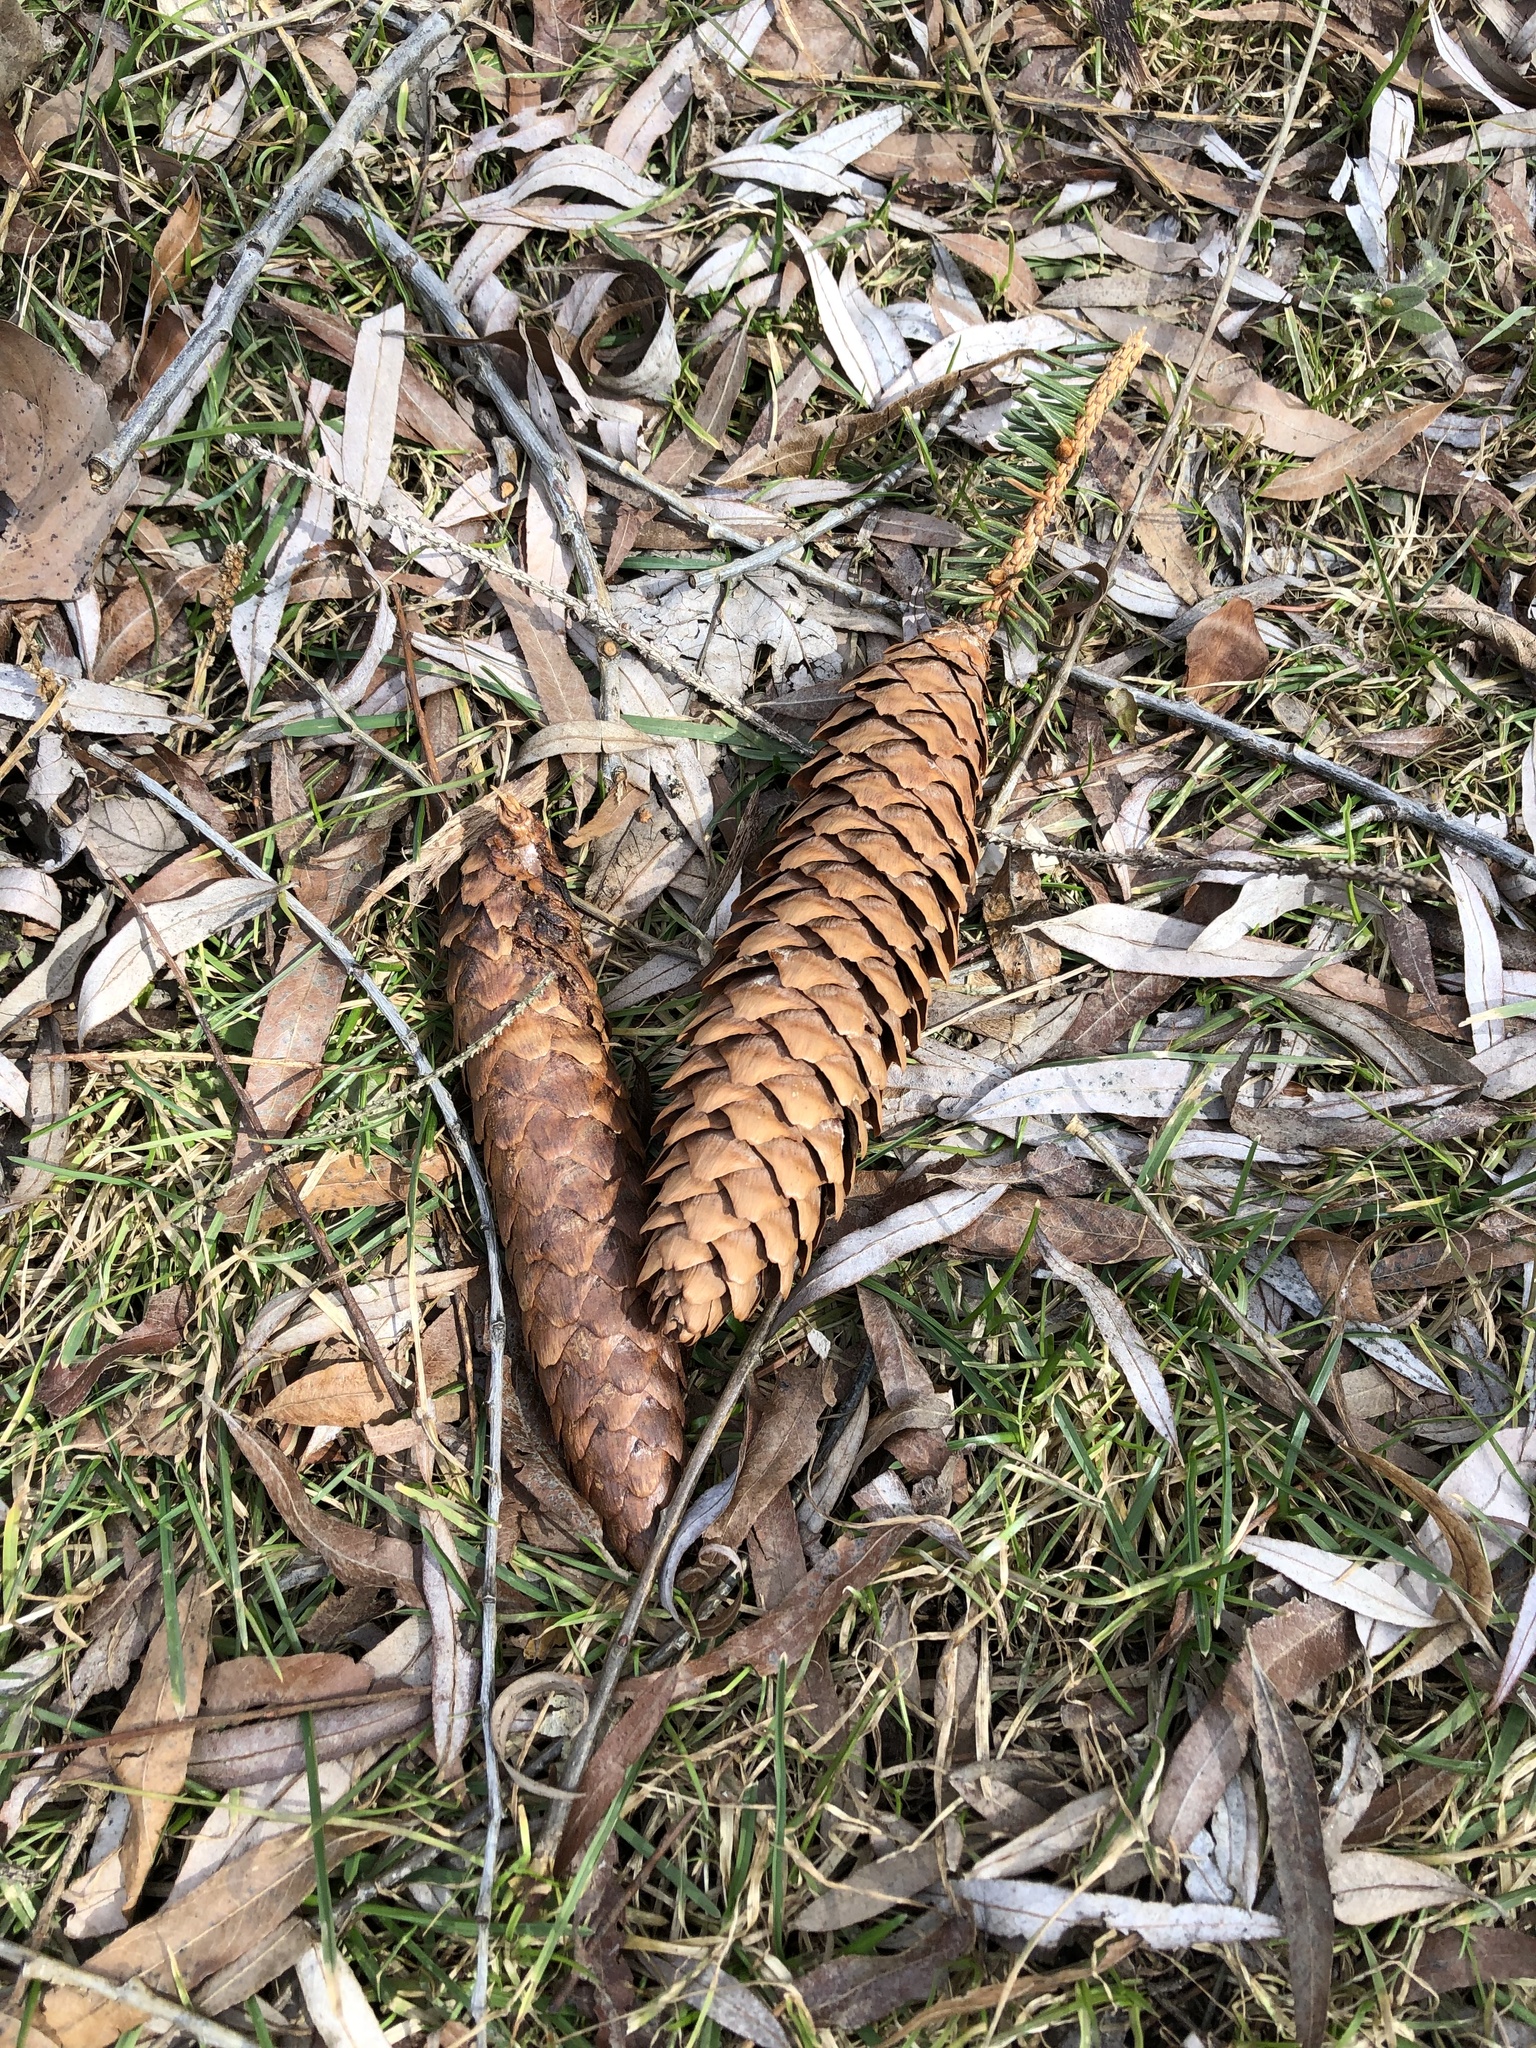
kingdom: Plantae
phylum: Tracheophyta
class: Pinopsida
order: Pinales
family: Pinaceae
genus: Picea
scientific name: Picea abies
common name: Norway spruce
